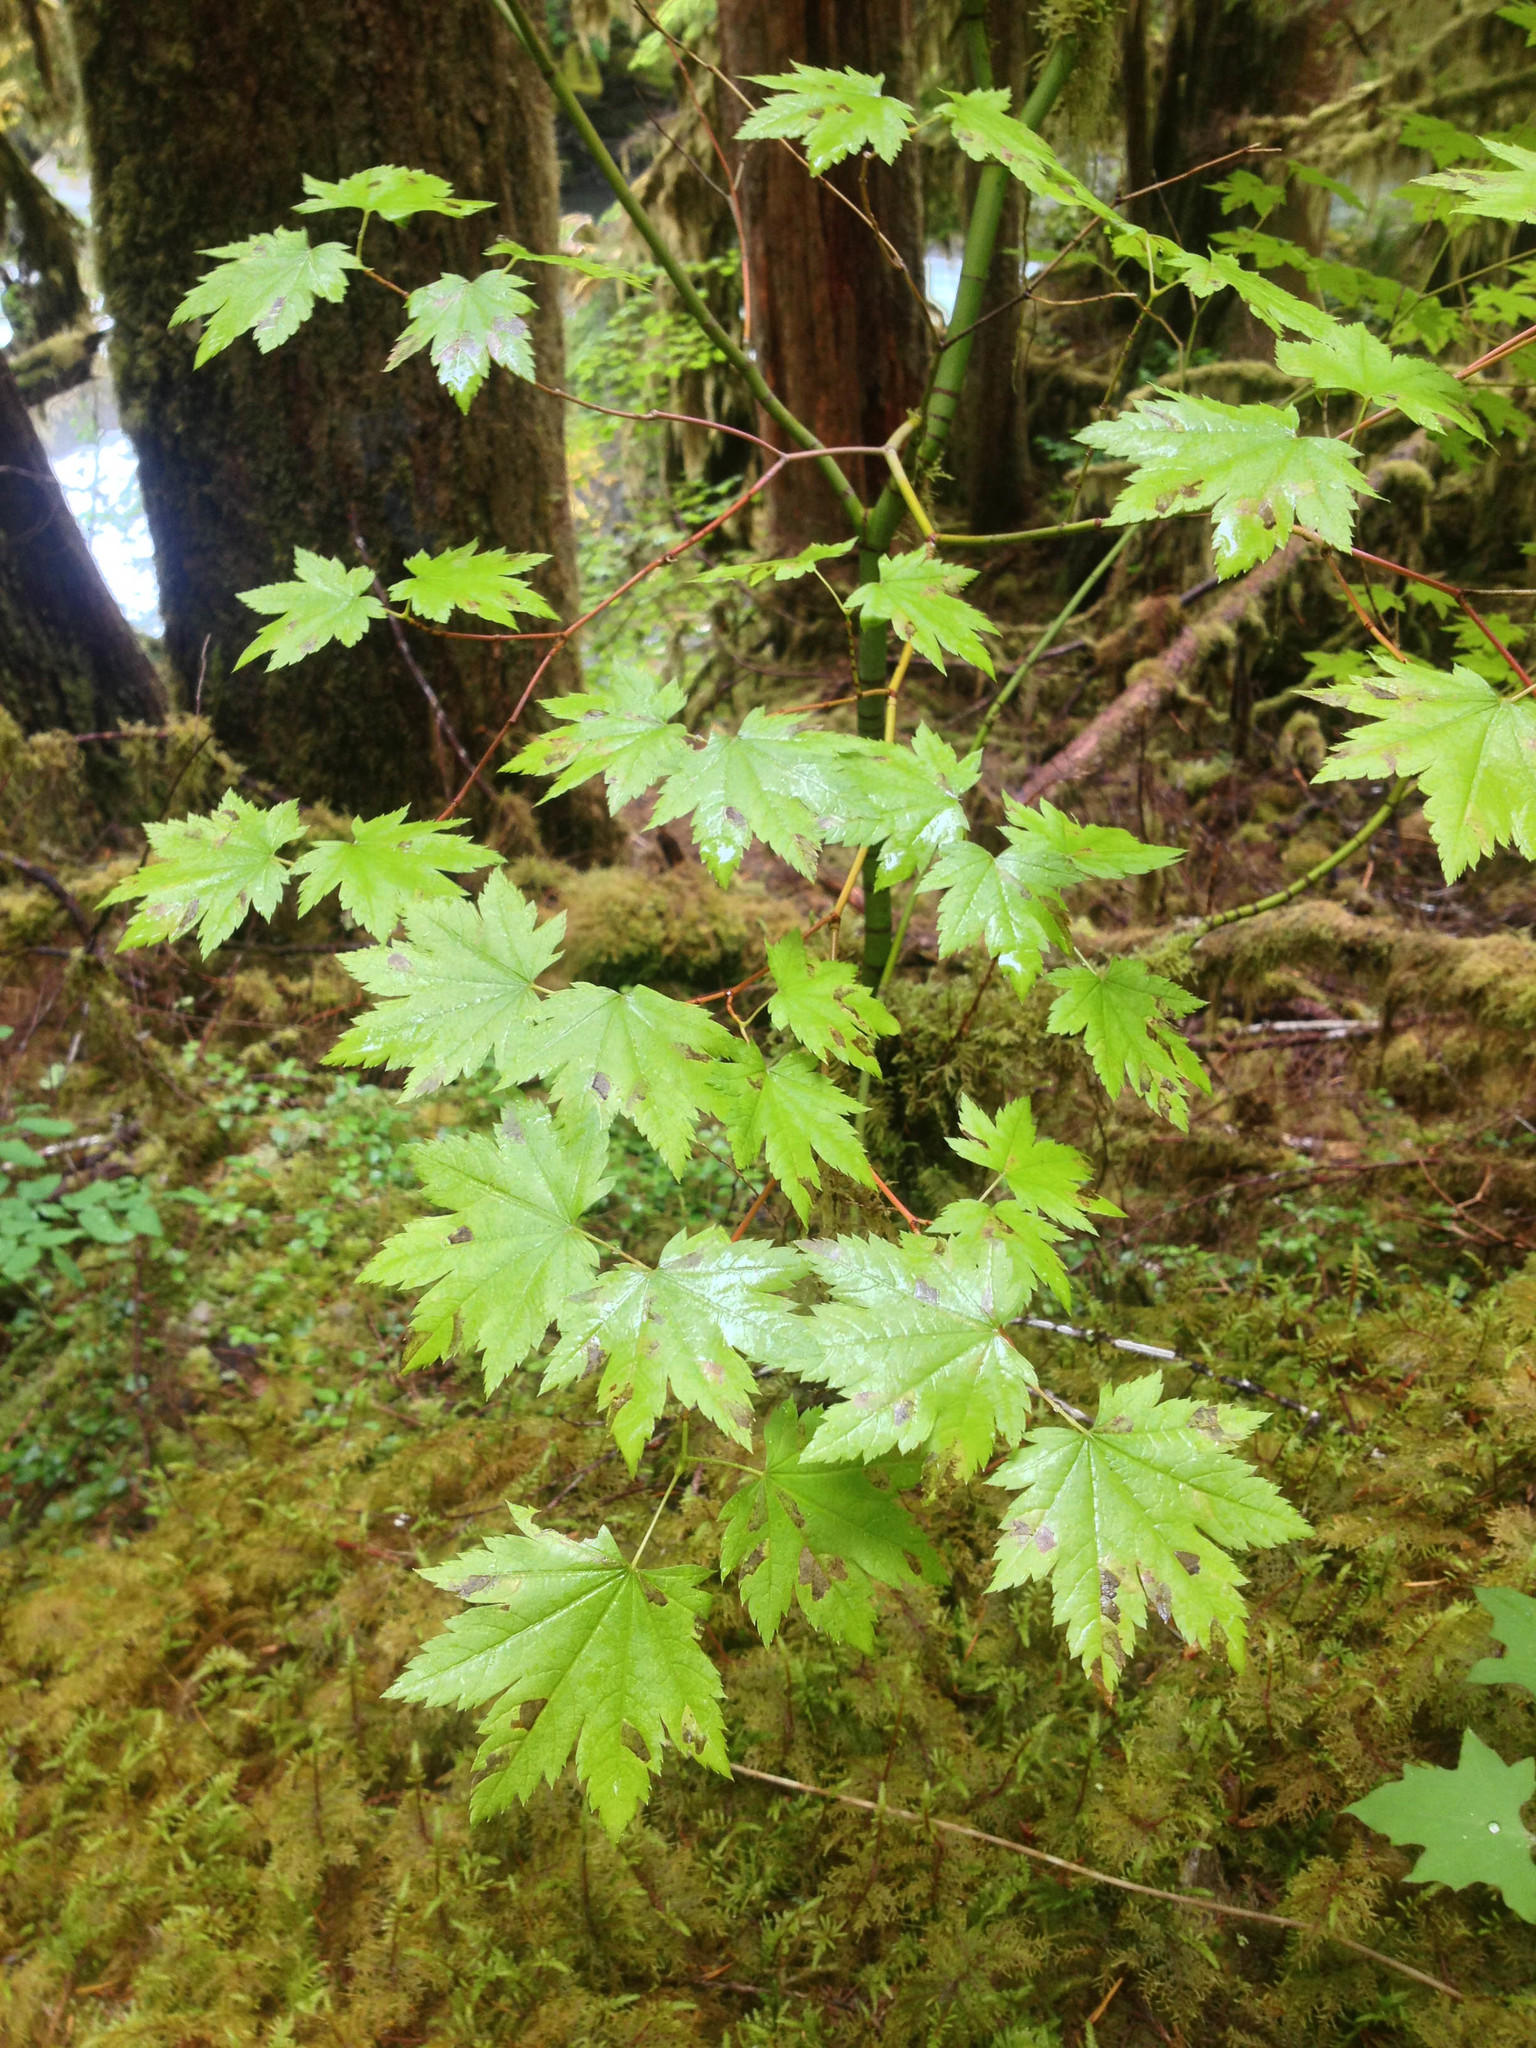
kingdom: Plantae
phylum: Tracheophyta
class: Magnoliopsida
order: Sapindales
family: Sapindaceae
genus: Acer
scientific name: Acer circinatum
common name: Vine maple
